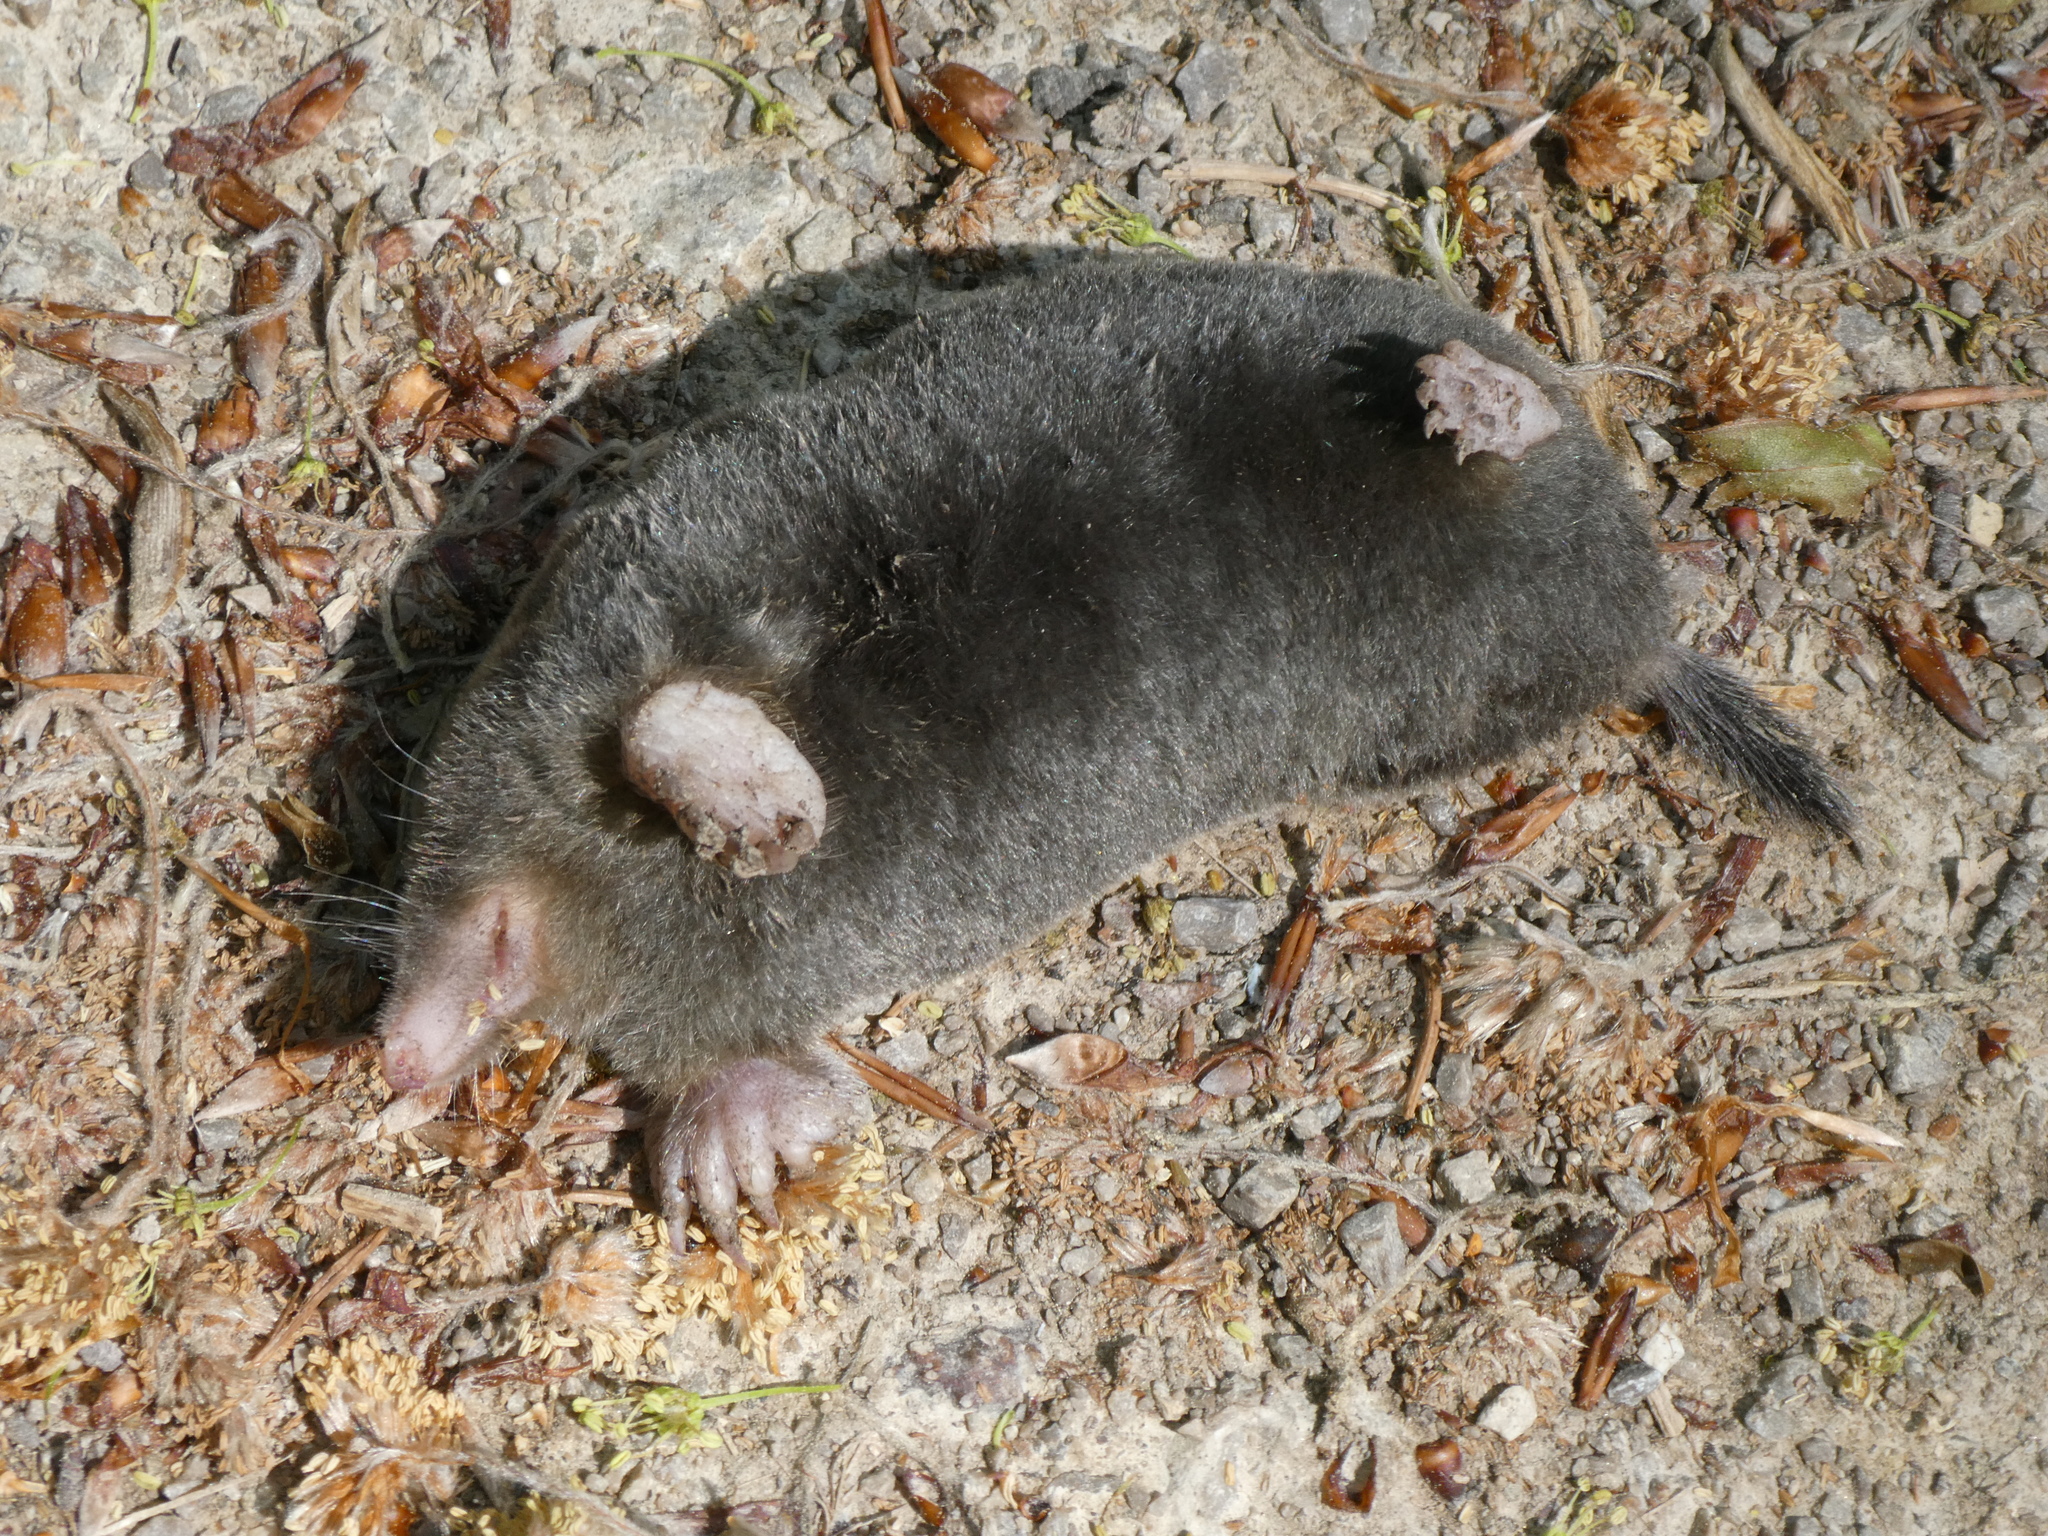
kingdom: Animalia
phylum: Chordata
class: Mammalia
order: Soricomorpha
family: Talpidae
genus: Talpa
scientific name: Talpa europaea
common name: European mole
